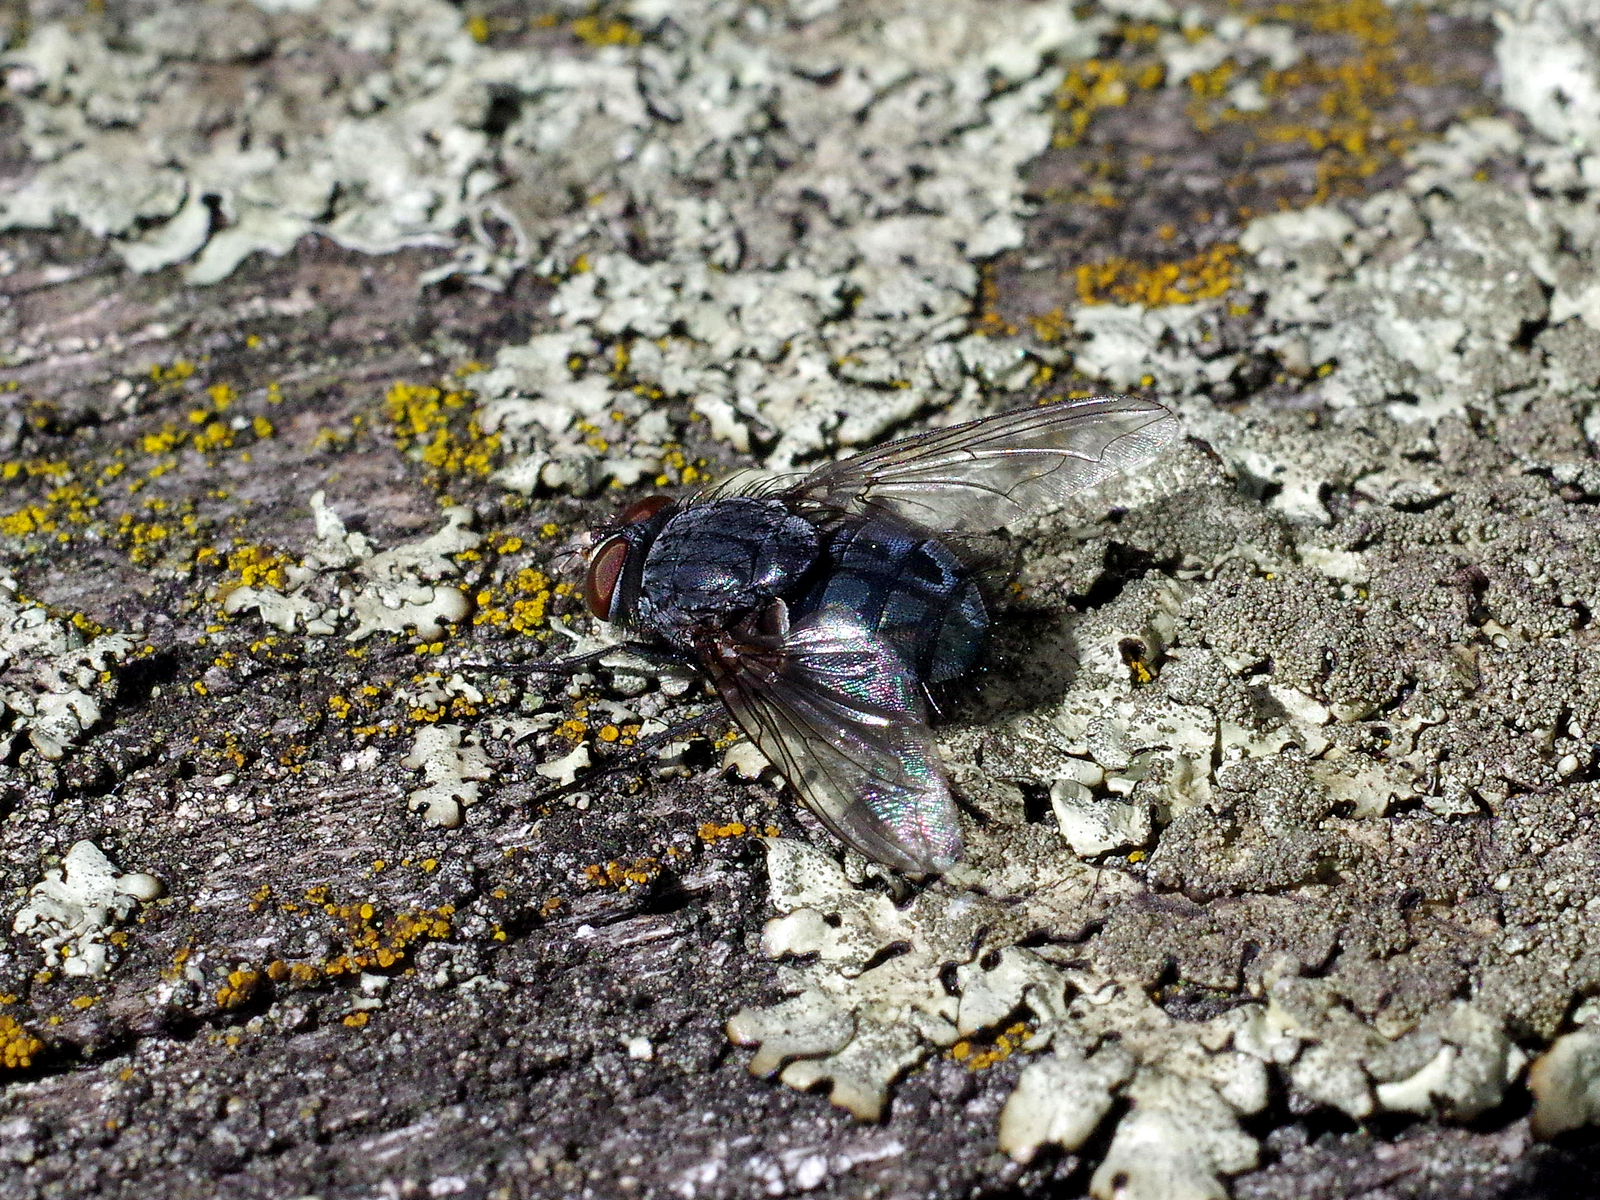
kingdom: Animalia
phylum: Arthropoda
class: Insecta
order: Diptera
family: Calliphoridae
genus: Calliphora
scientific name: Calliphora vicina
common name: Common blow flie
